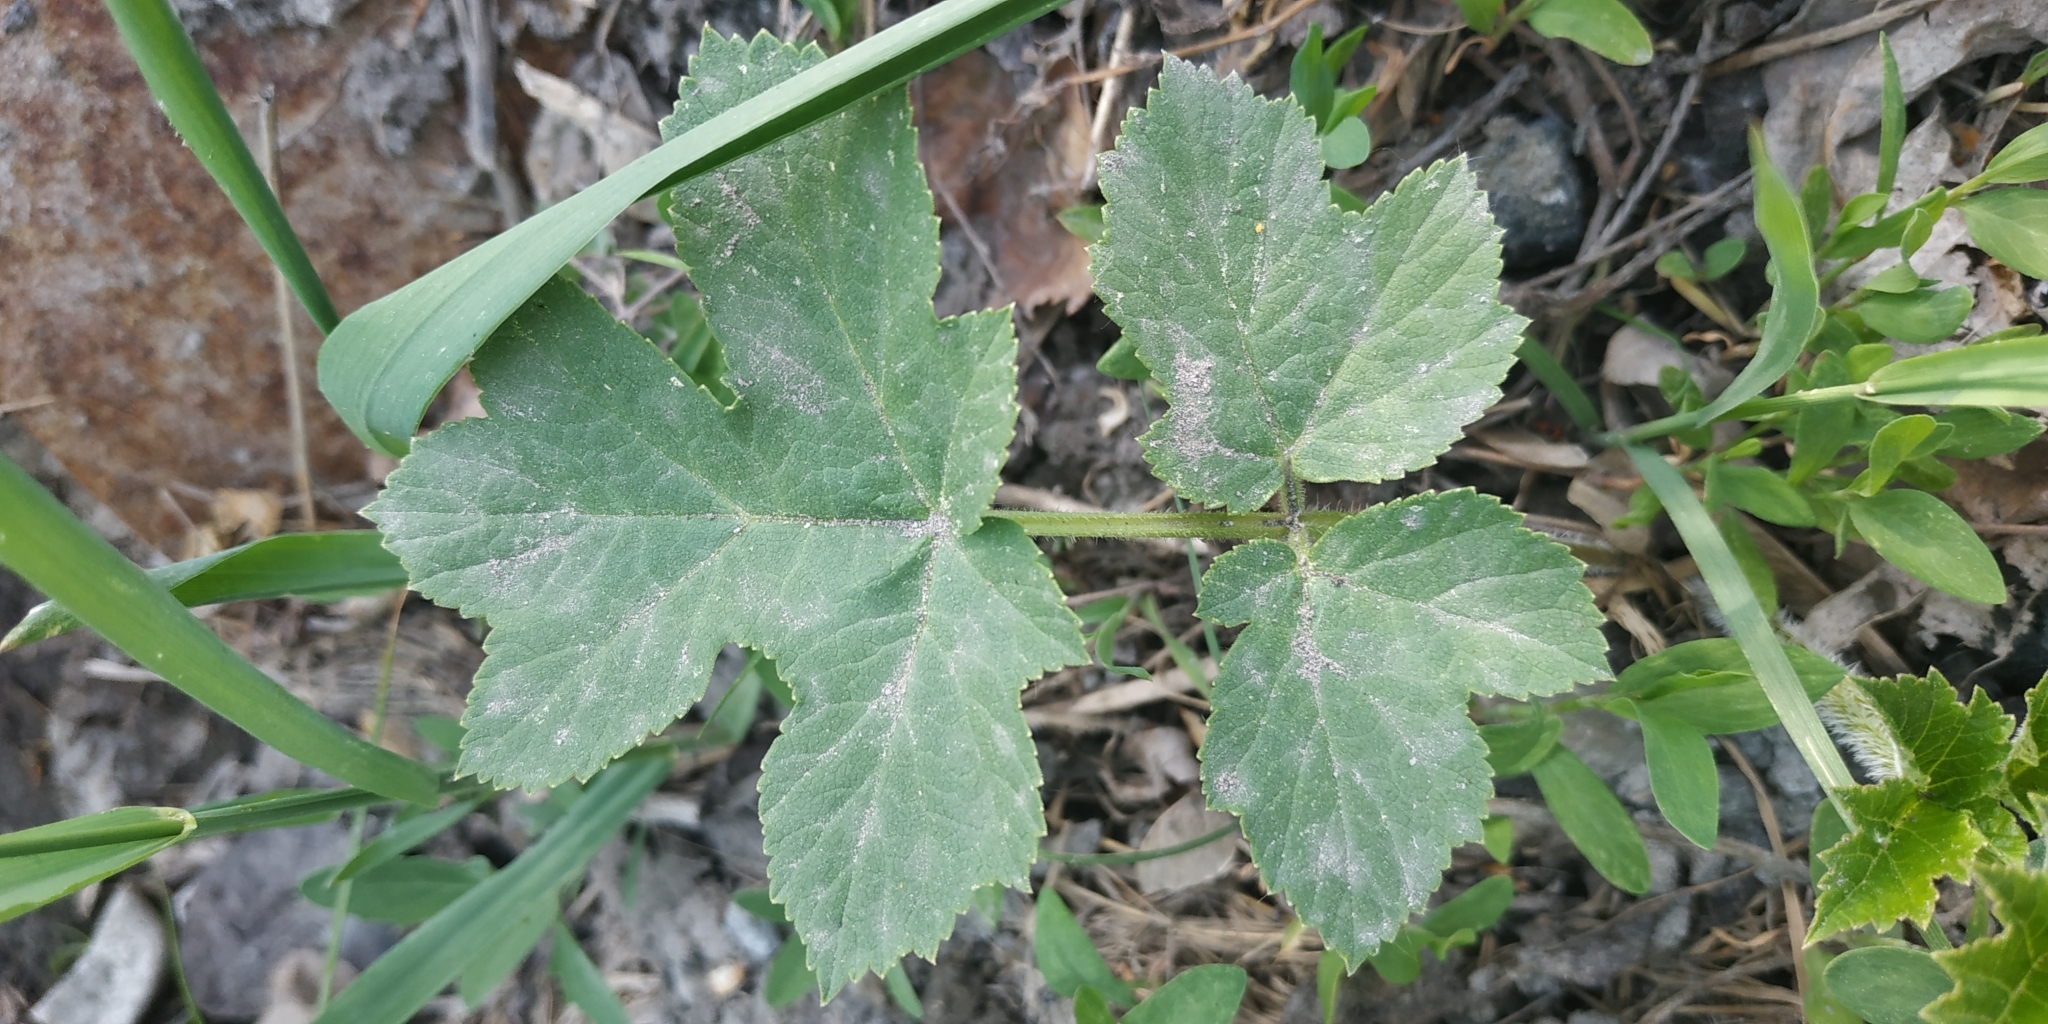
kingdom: Plantae
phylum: Tracheophyta
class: Magnoliopsida
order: Apiales
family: Apiaceae
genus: Heracleum
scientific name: Heracleum sphondylium
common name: Hogweed
